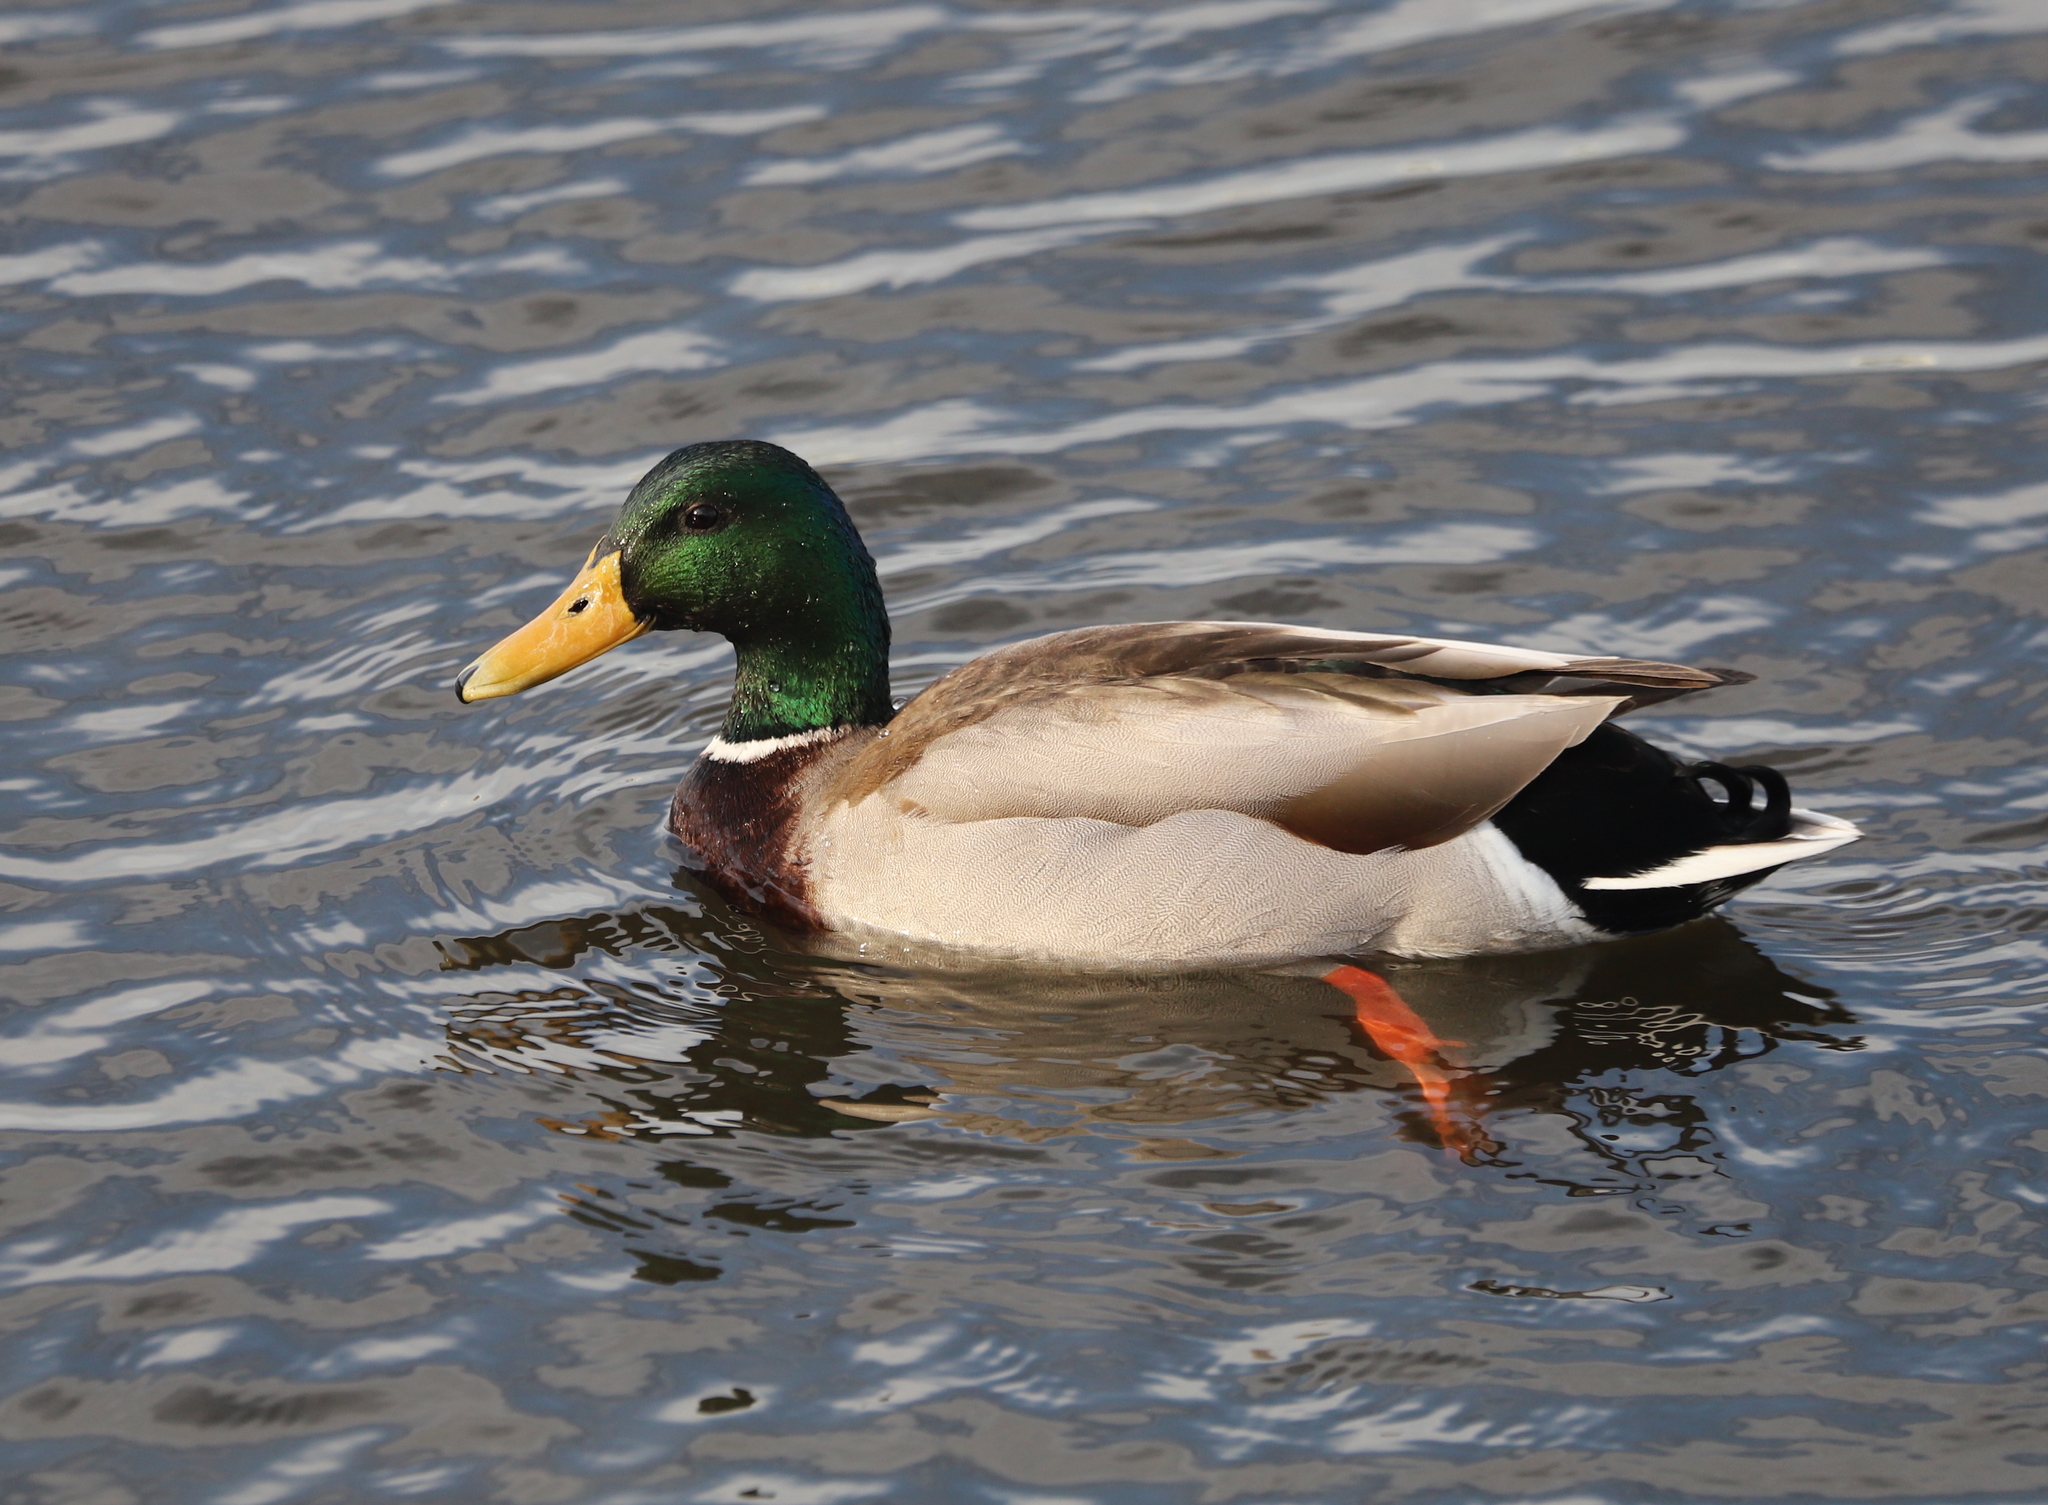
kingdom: Animalia
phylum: Chordata
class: Aves
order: Anseriformes
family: Anatidae
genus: Anas
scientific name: Anas platyrhynchos
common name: Mallard
